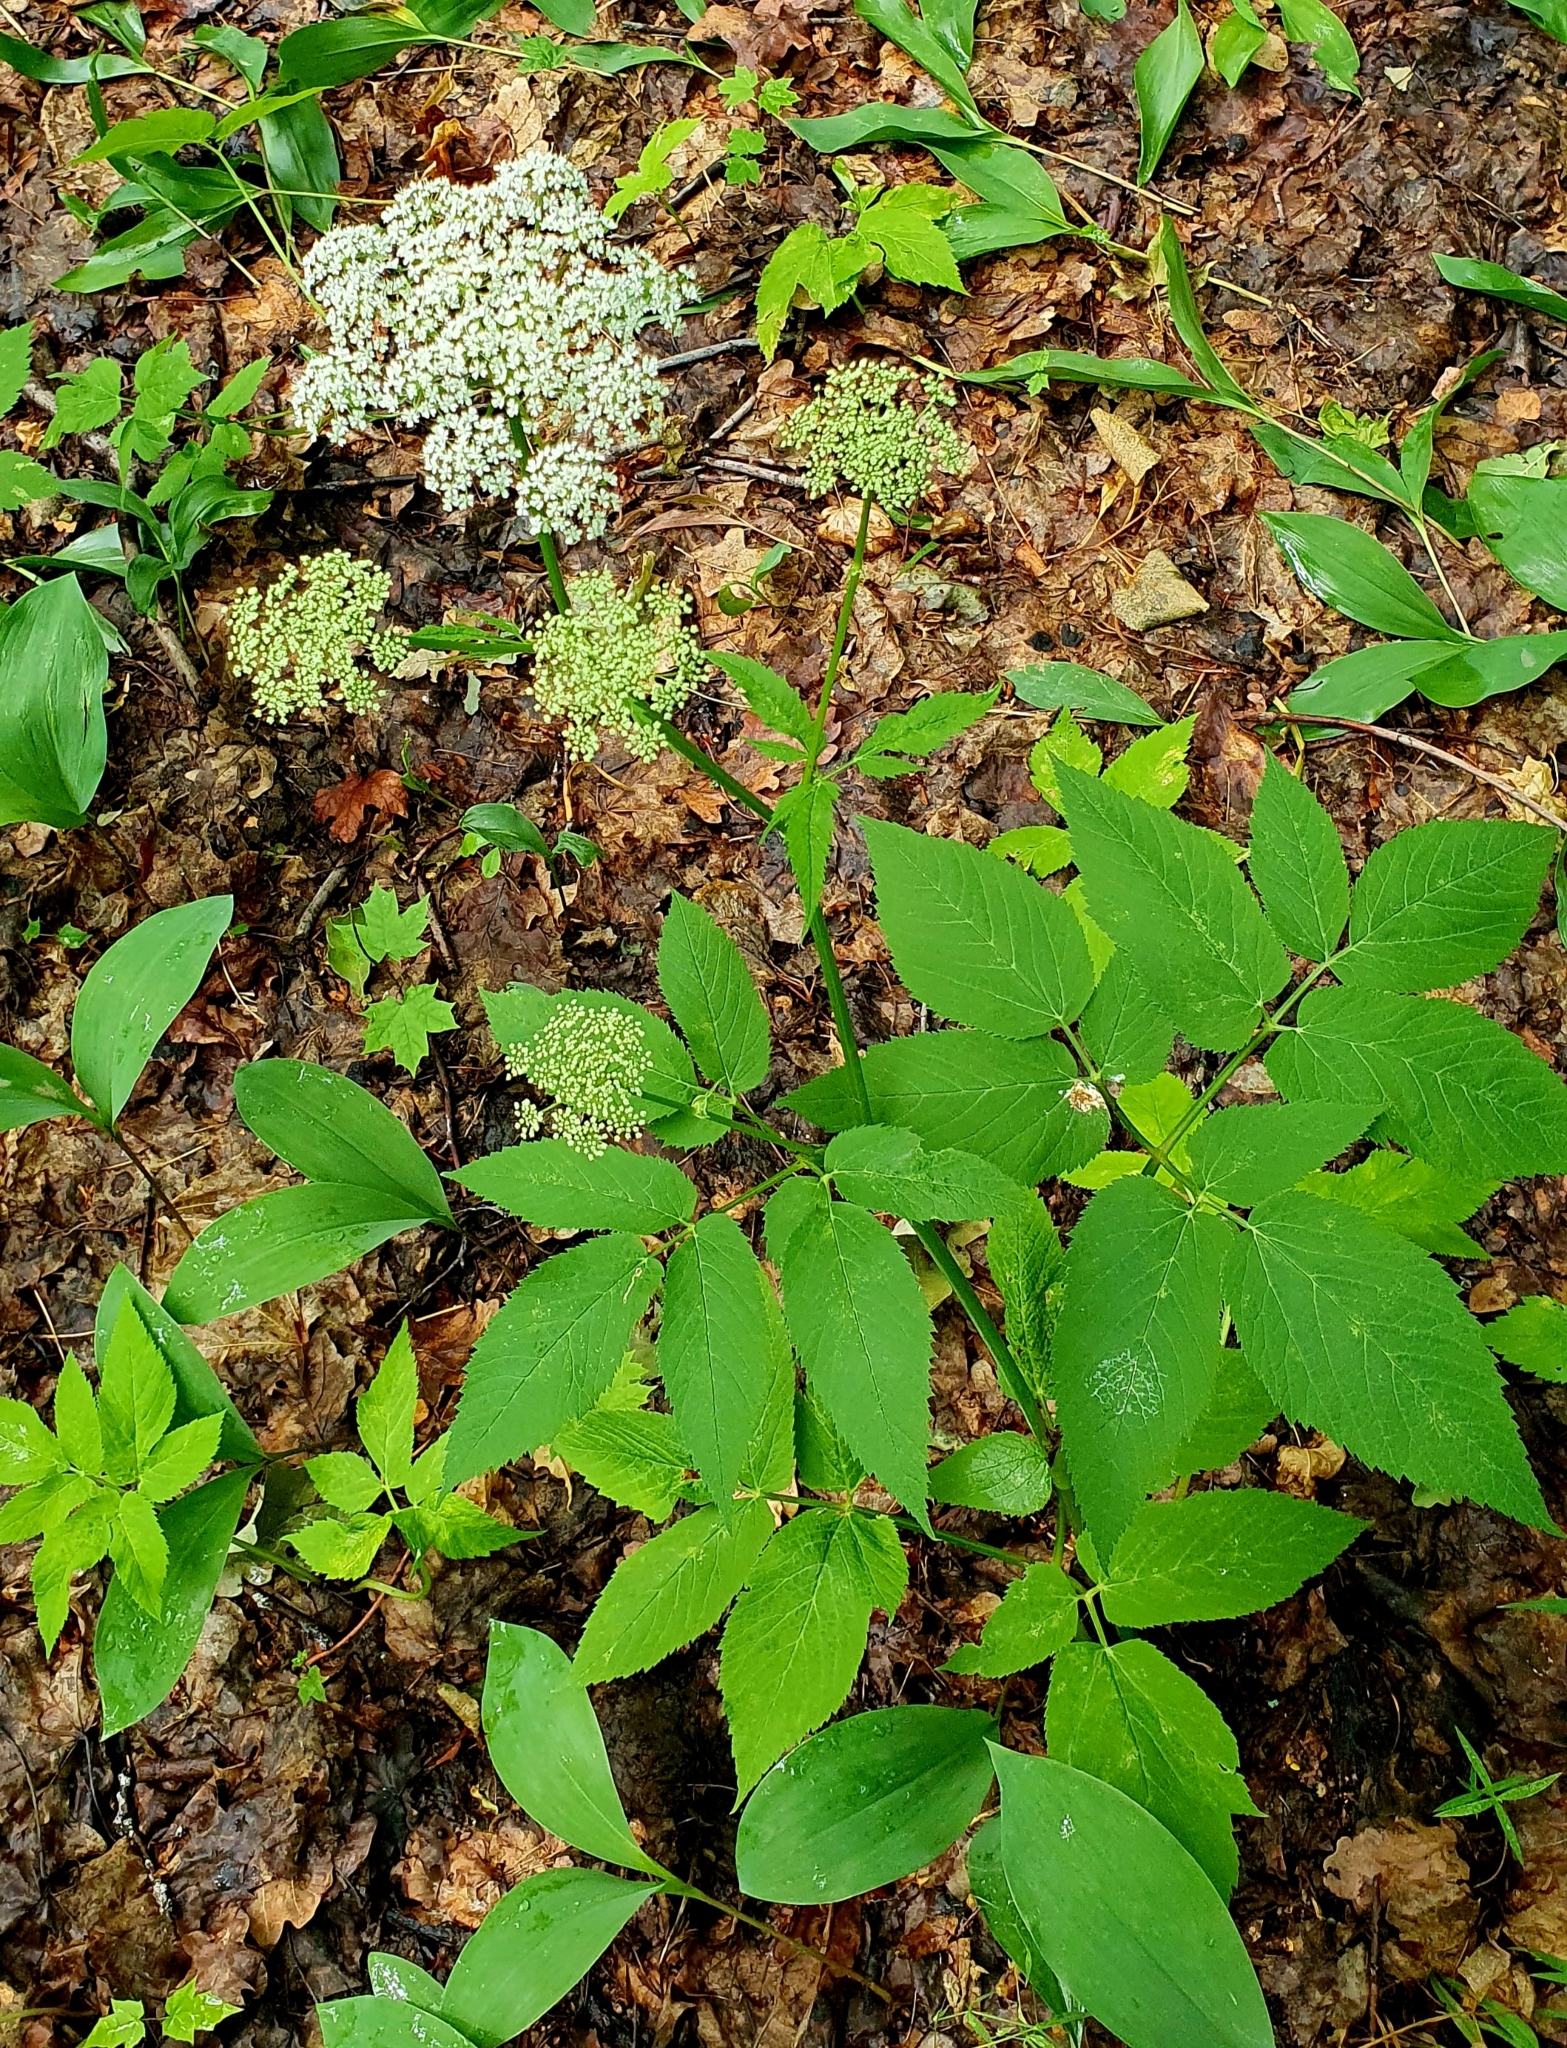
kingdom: Plantae
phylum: Tracheophyta
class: Magnoliopsida
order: Apiales
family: Apiaceae
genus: Aegopodium
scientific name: Aegopodium podagraria
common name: Ground-elder
